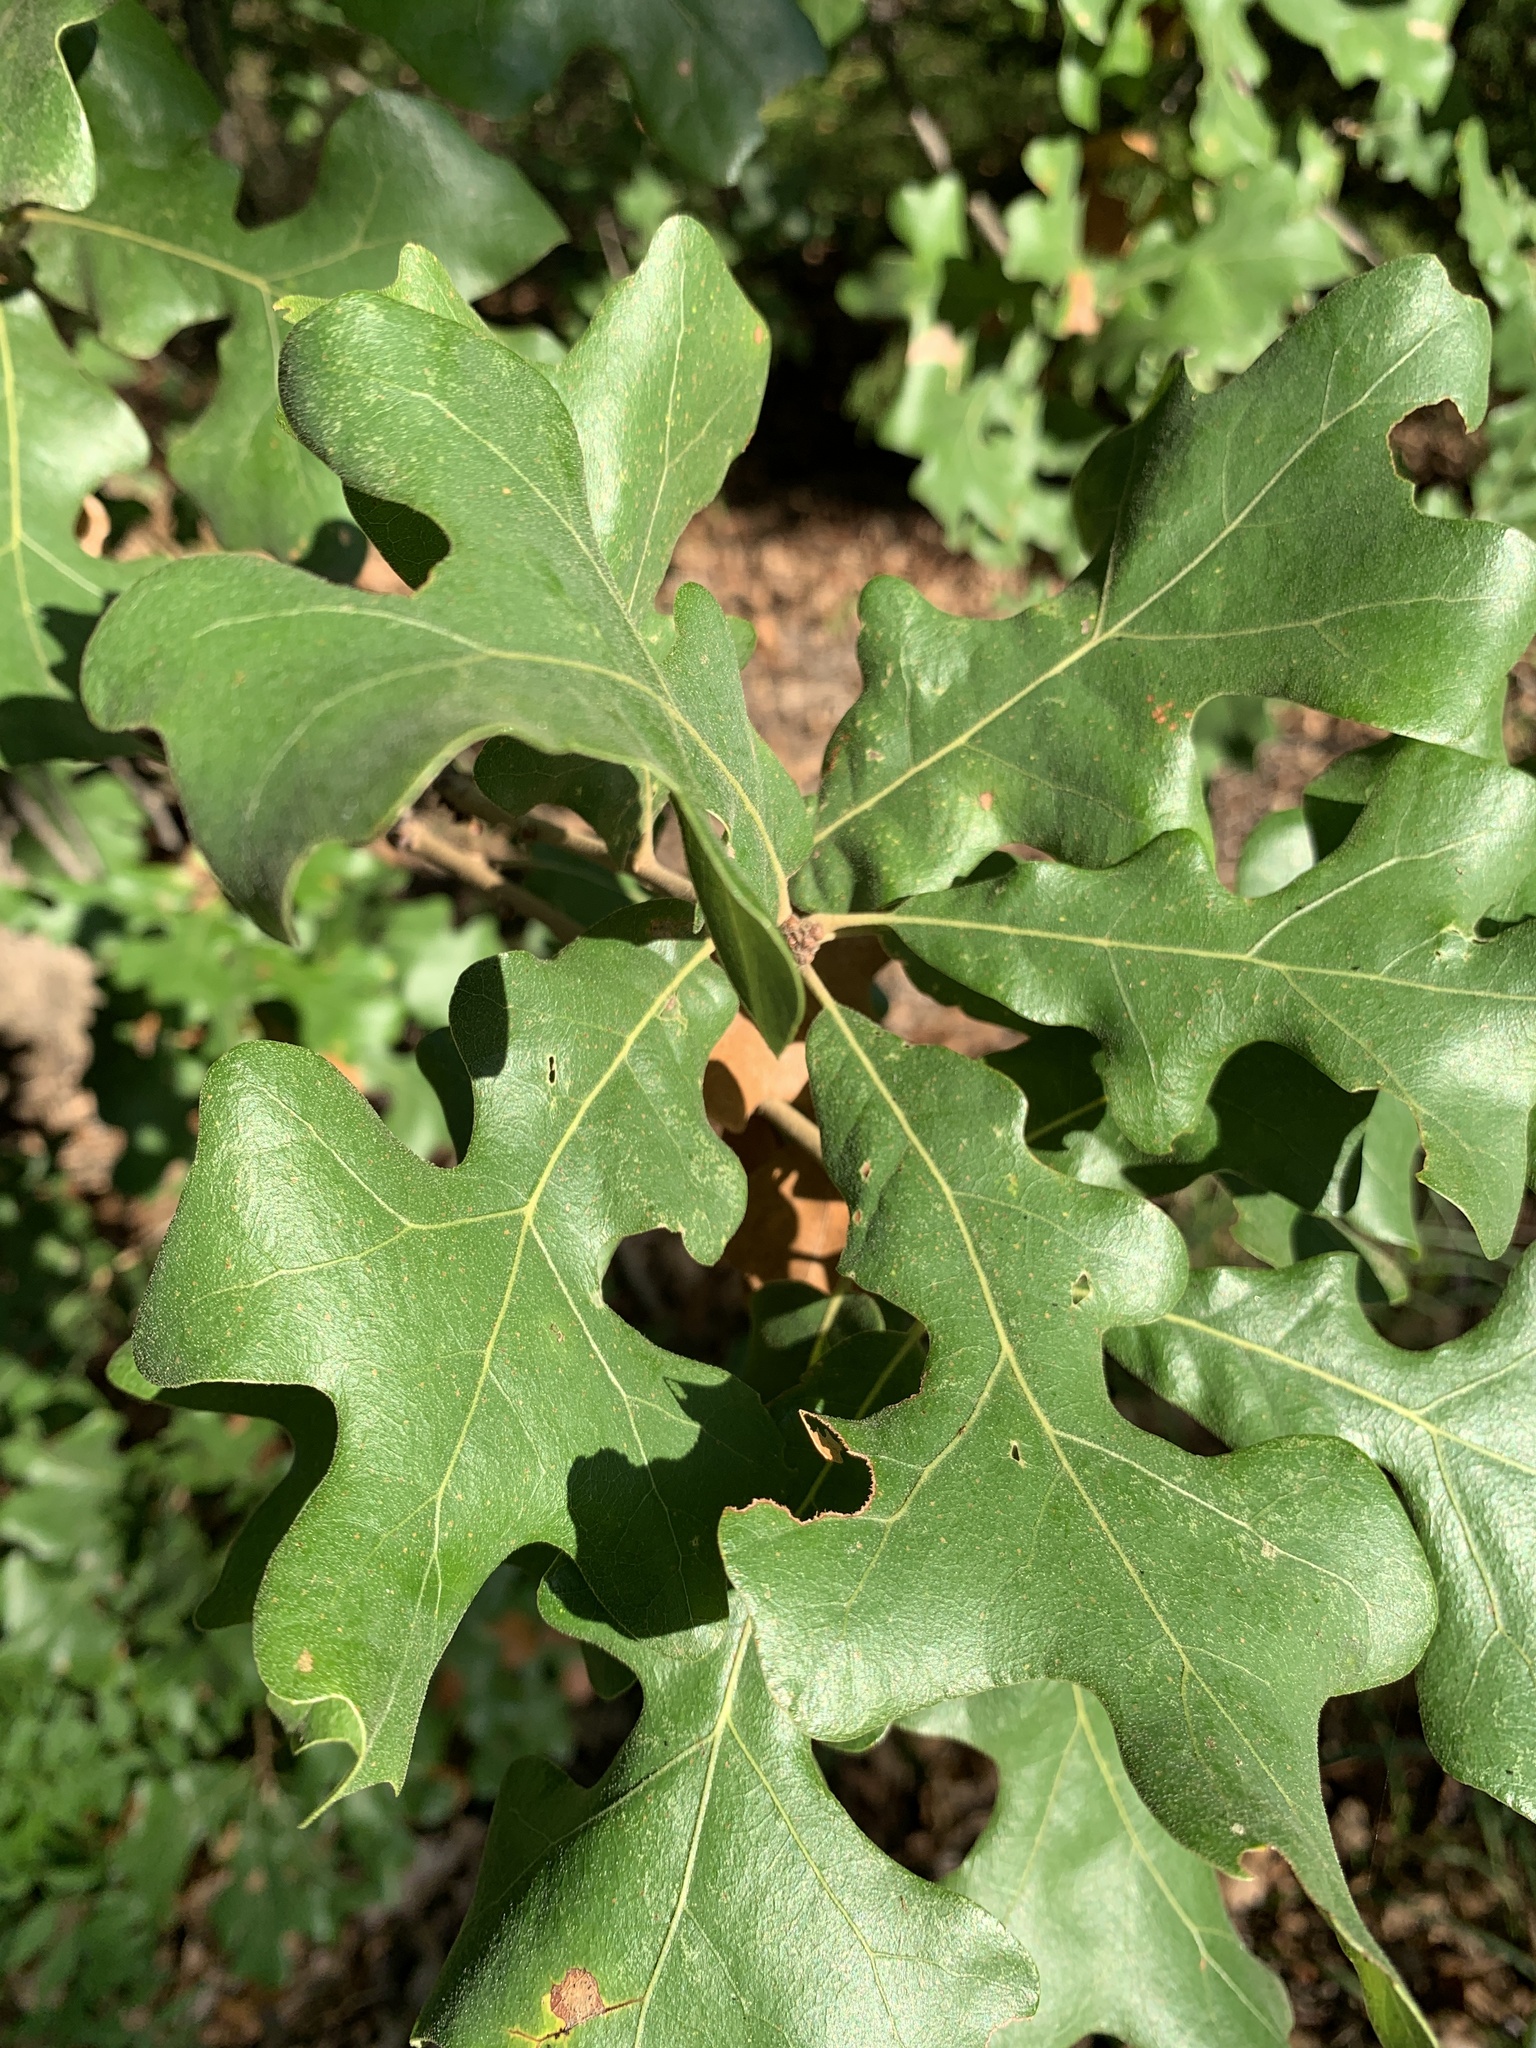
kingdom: Plantae
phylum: Tracheophyta
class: Magnoliopsida
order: Fagales
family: Fagaceae
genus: Quercus
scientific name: Quercus stellata
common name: Post oak
